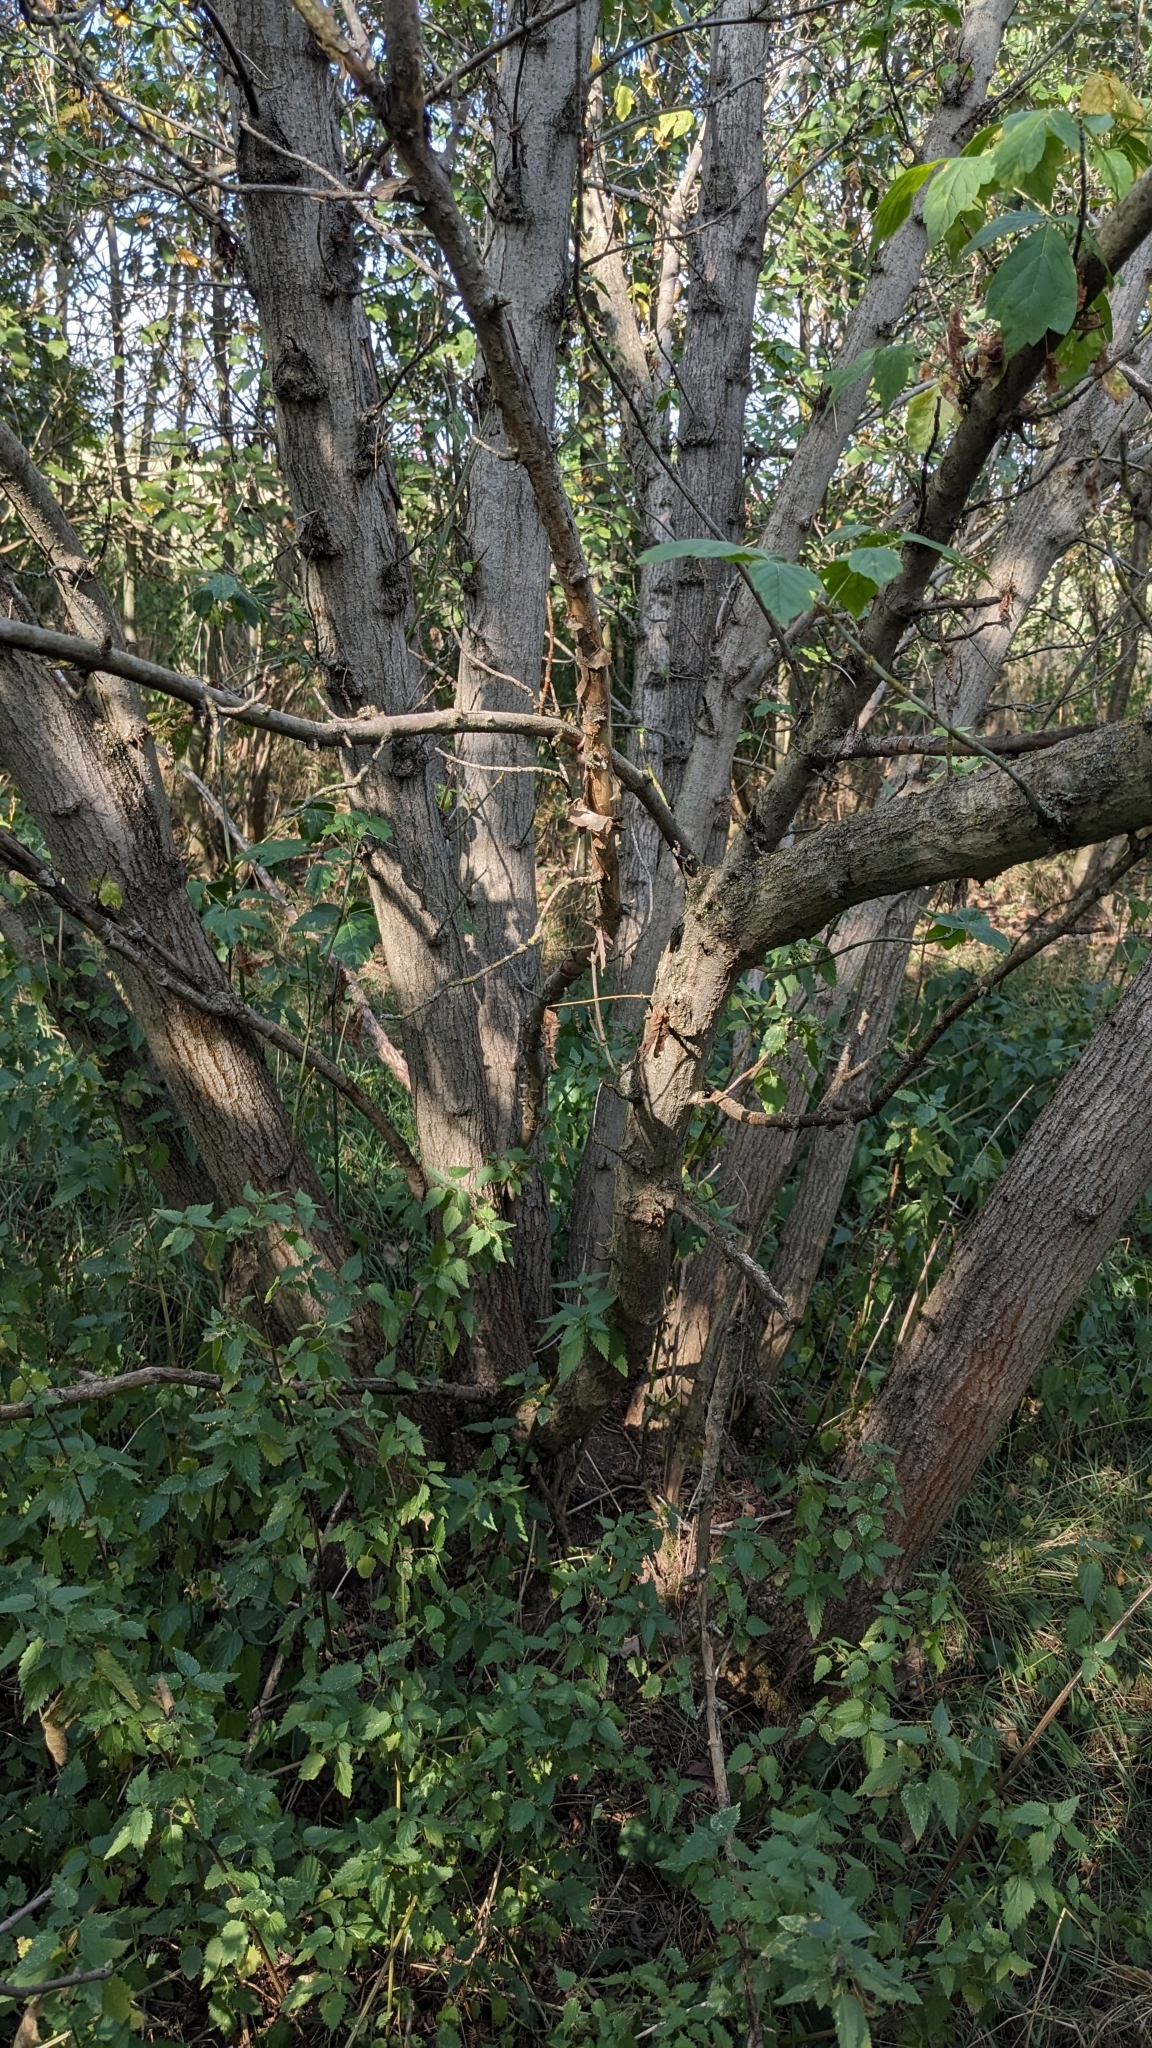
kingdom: Plantae
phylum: Tracheophyta
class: Magnoliopsida
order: Sapindales
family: Sapindaceae
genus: Acer
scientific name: Acer negundo
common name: Ashleaf maple
